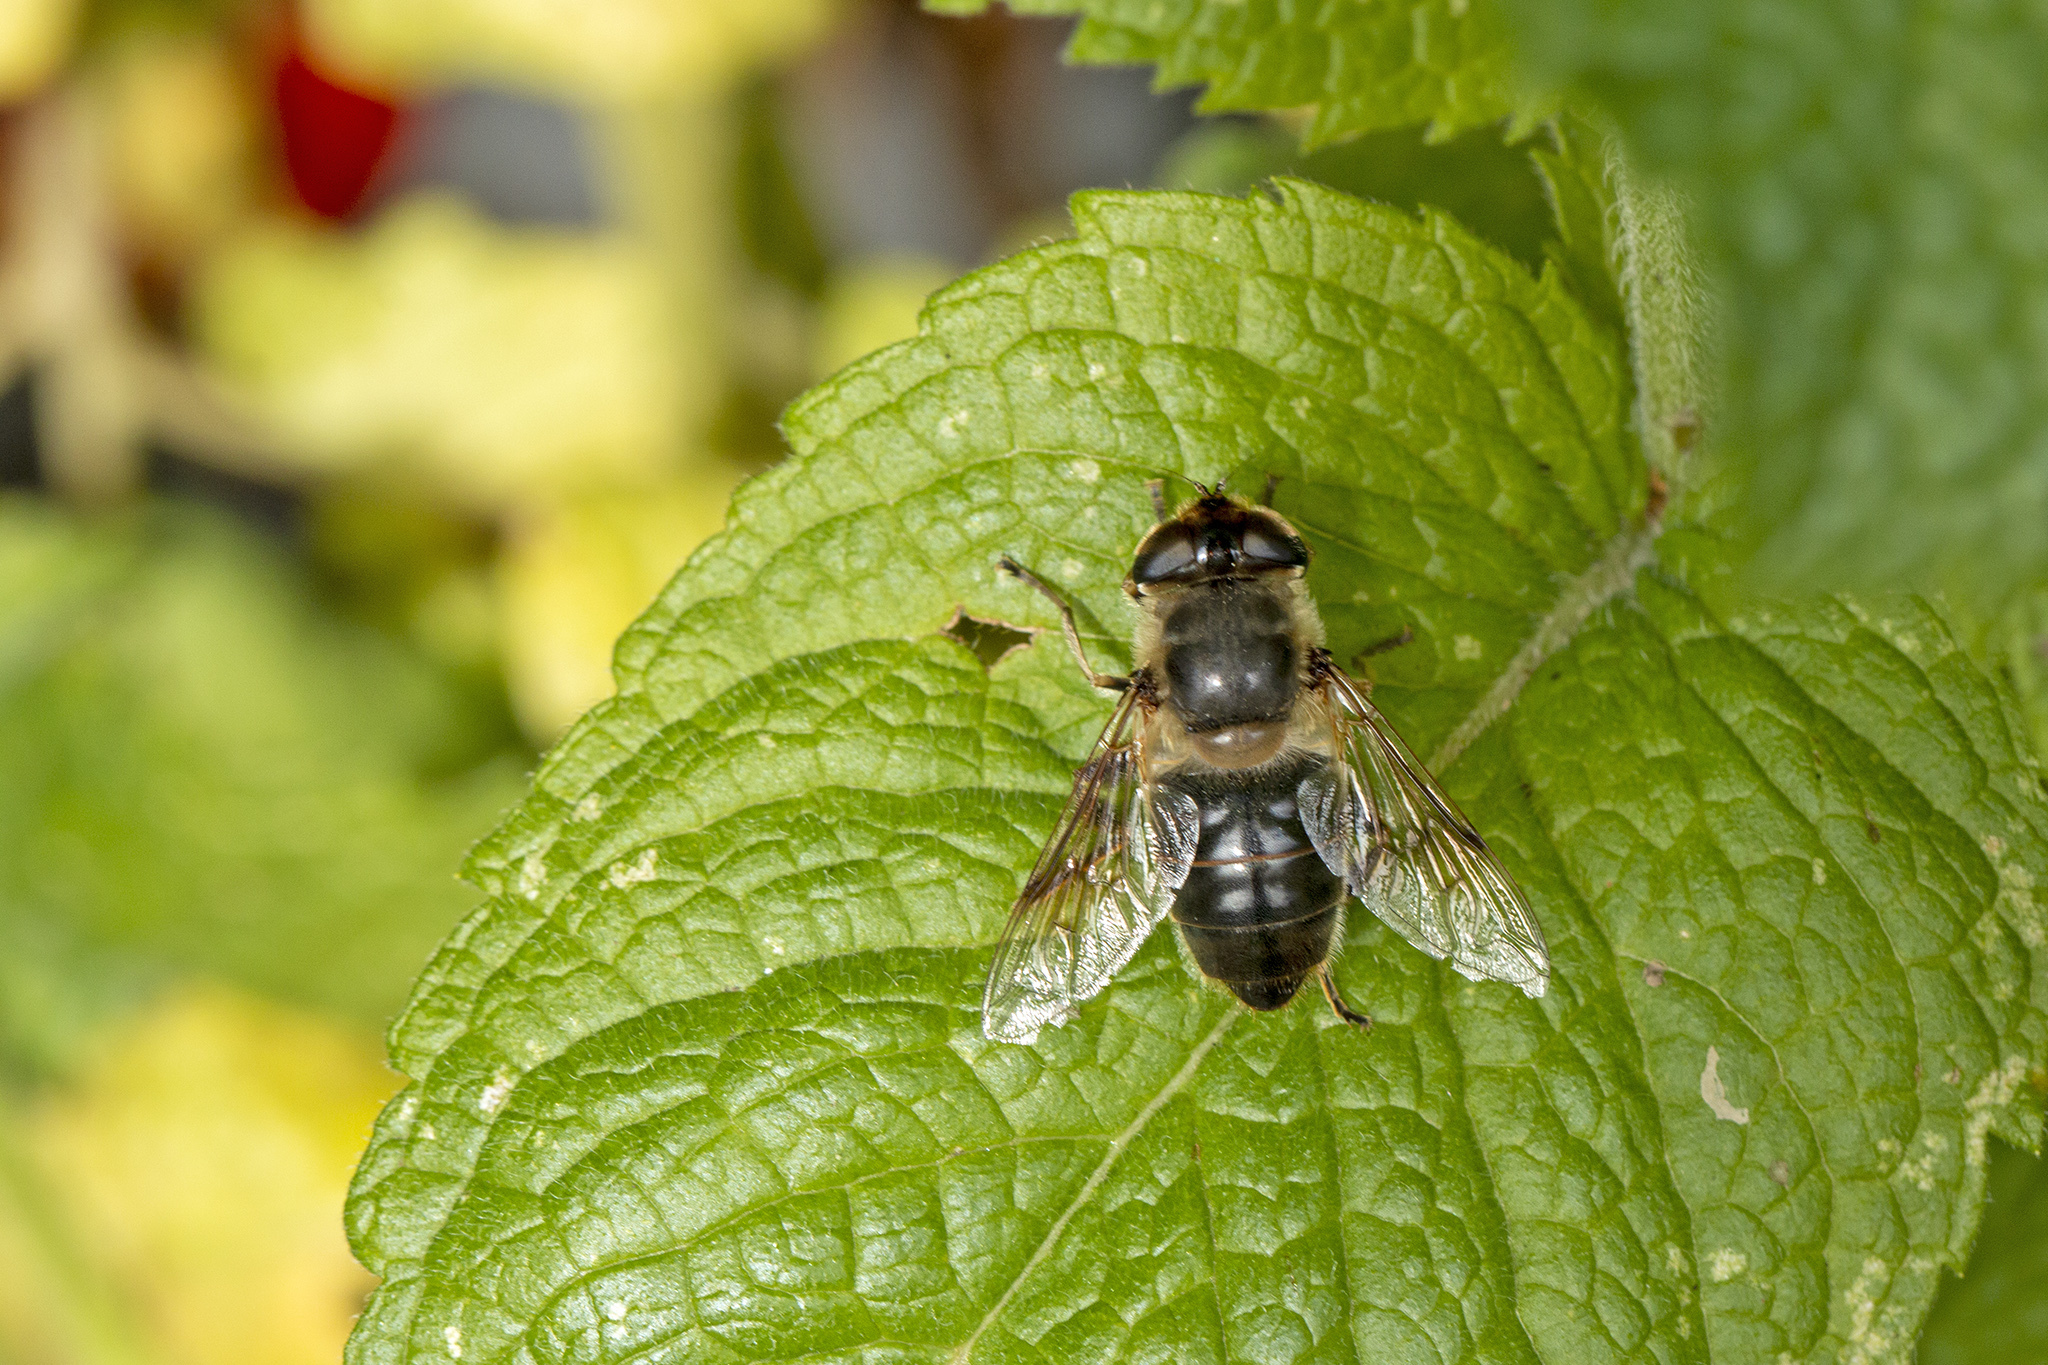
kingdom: Animalia
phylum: Arthropoda
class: Insecta
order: Diptera
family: Syrphidae
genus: Eristalis
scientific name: Eristalis tenax
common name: Drone fly
